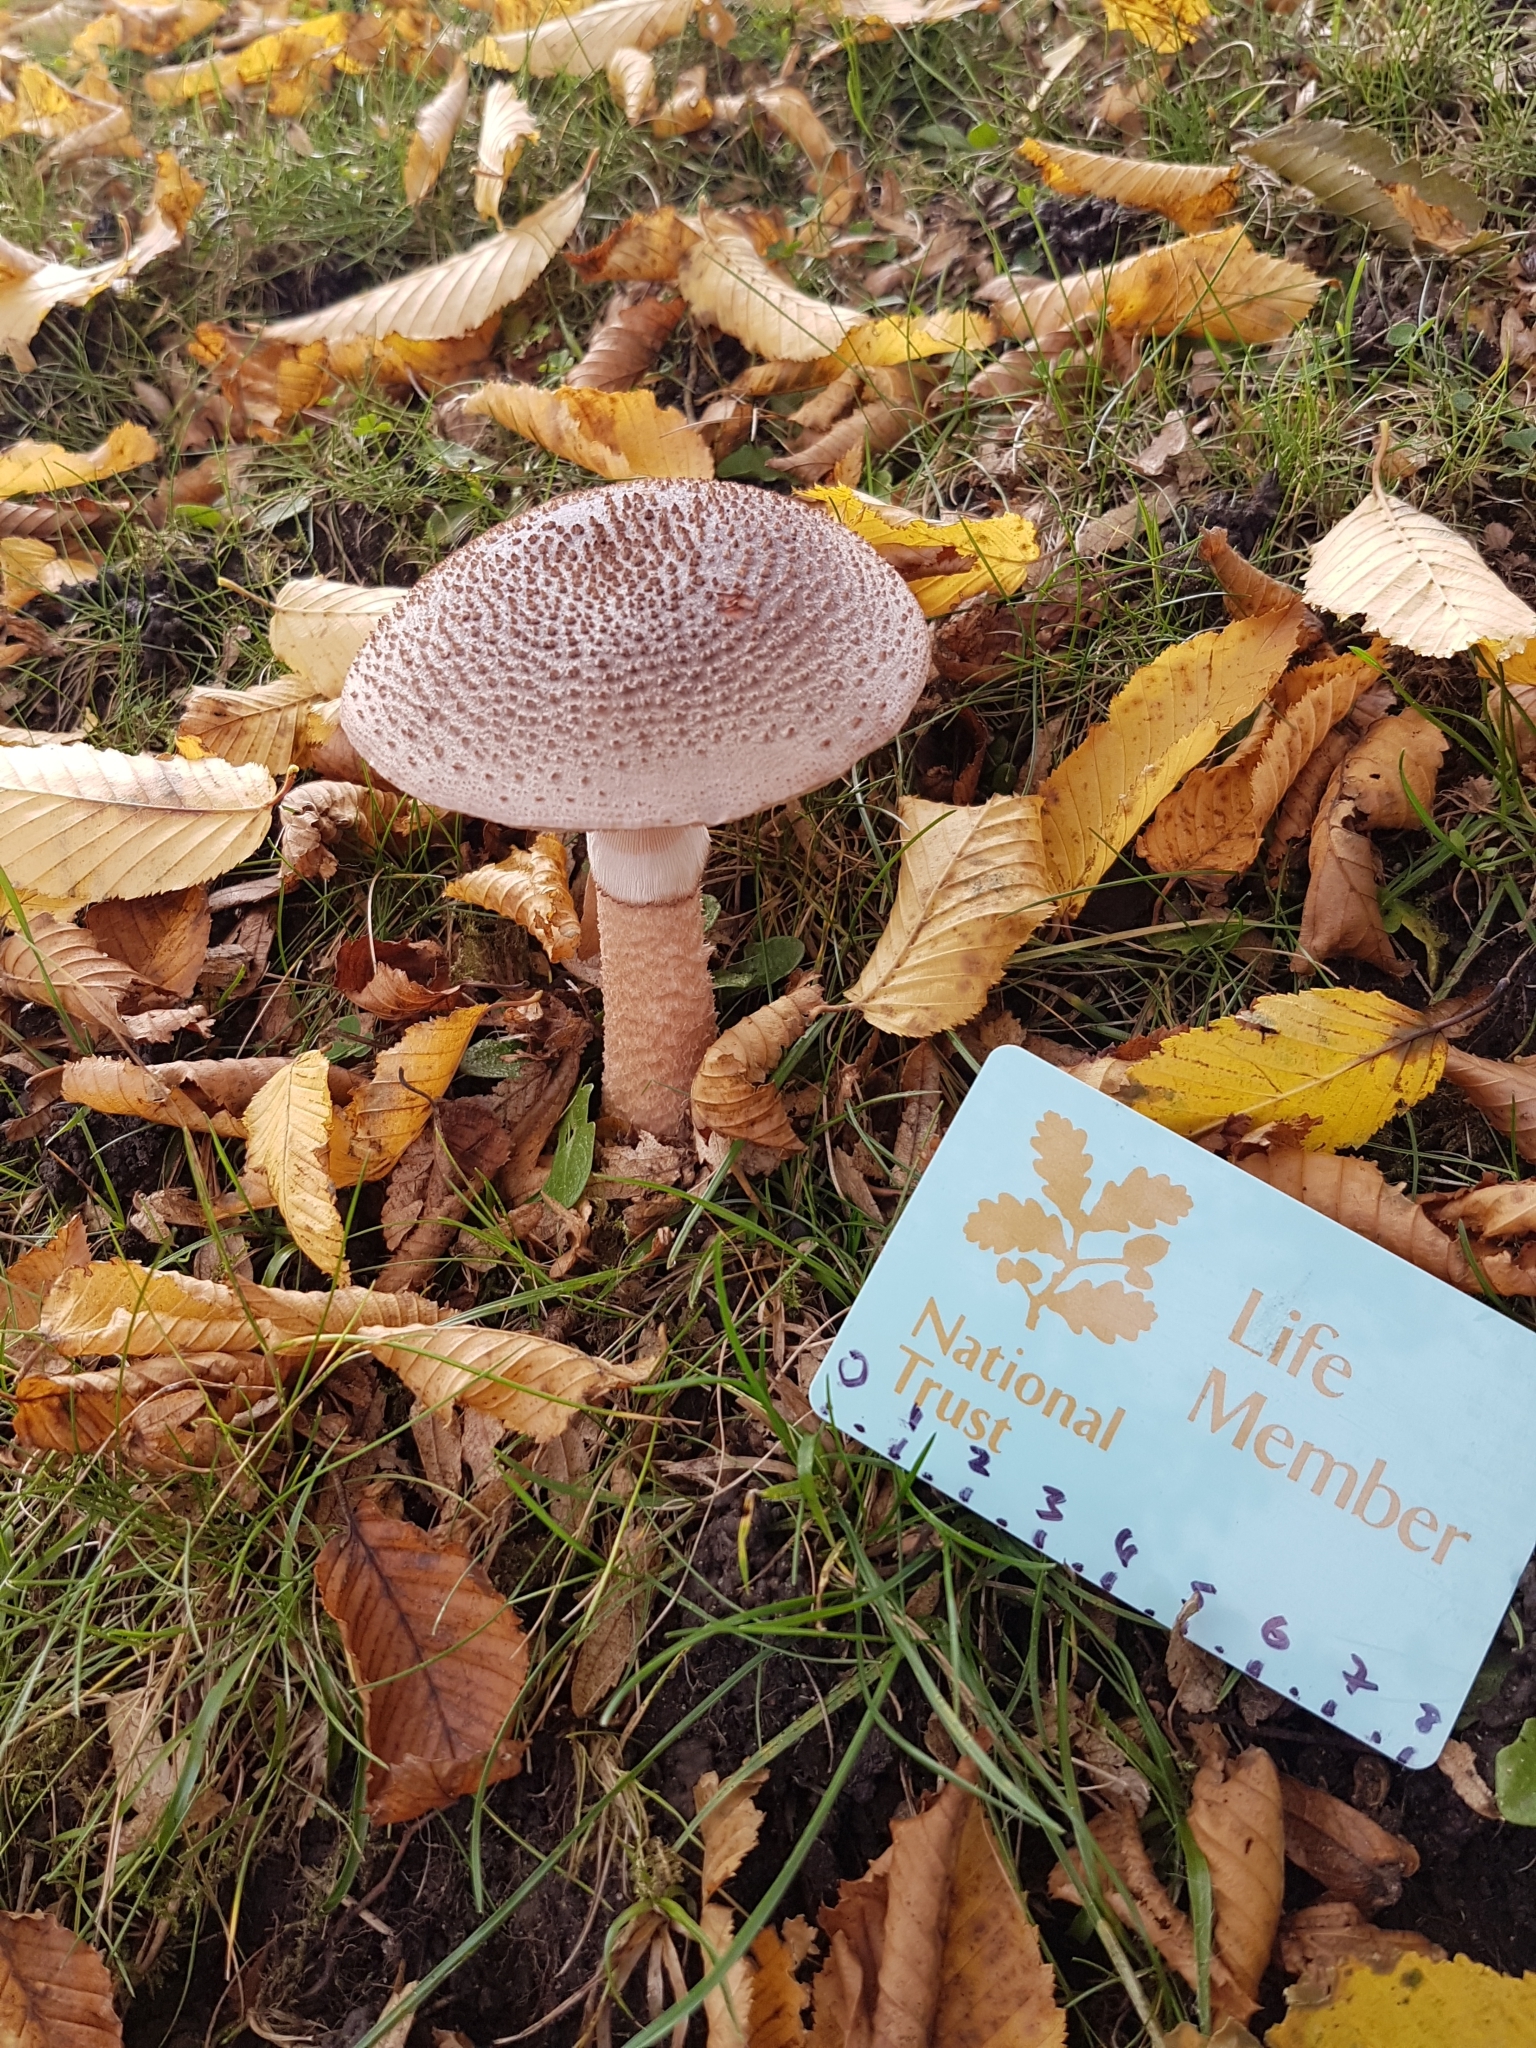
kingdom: Fungi
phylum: Basidiomycota
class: Agaricomycetes
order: Agaricales
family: Amanitaceae
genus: Amanita
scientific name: Amanita rubescens
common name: Blusher
